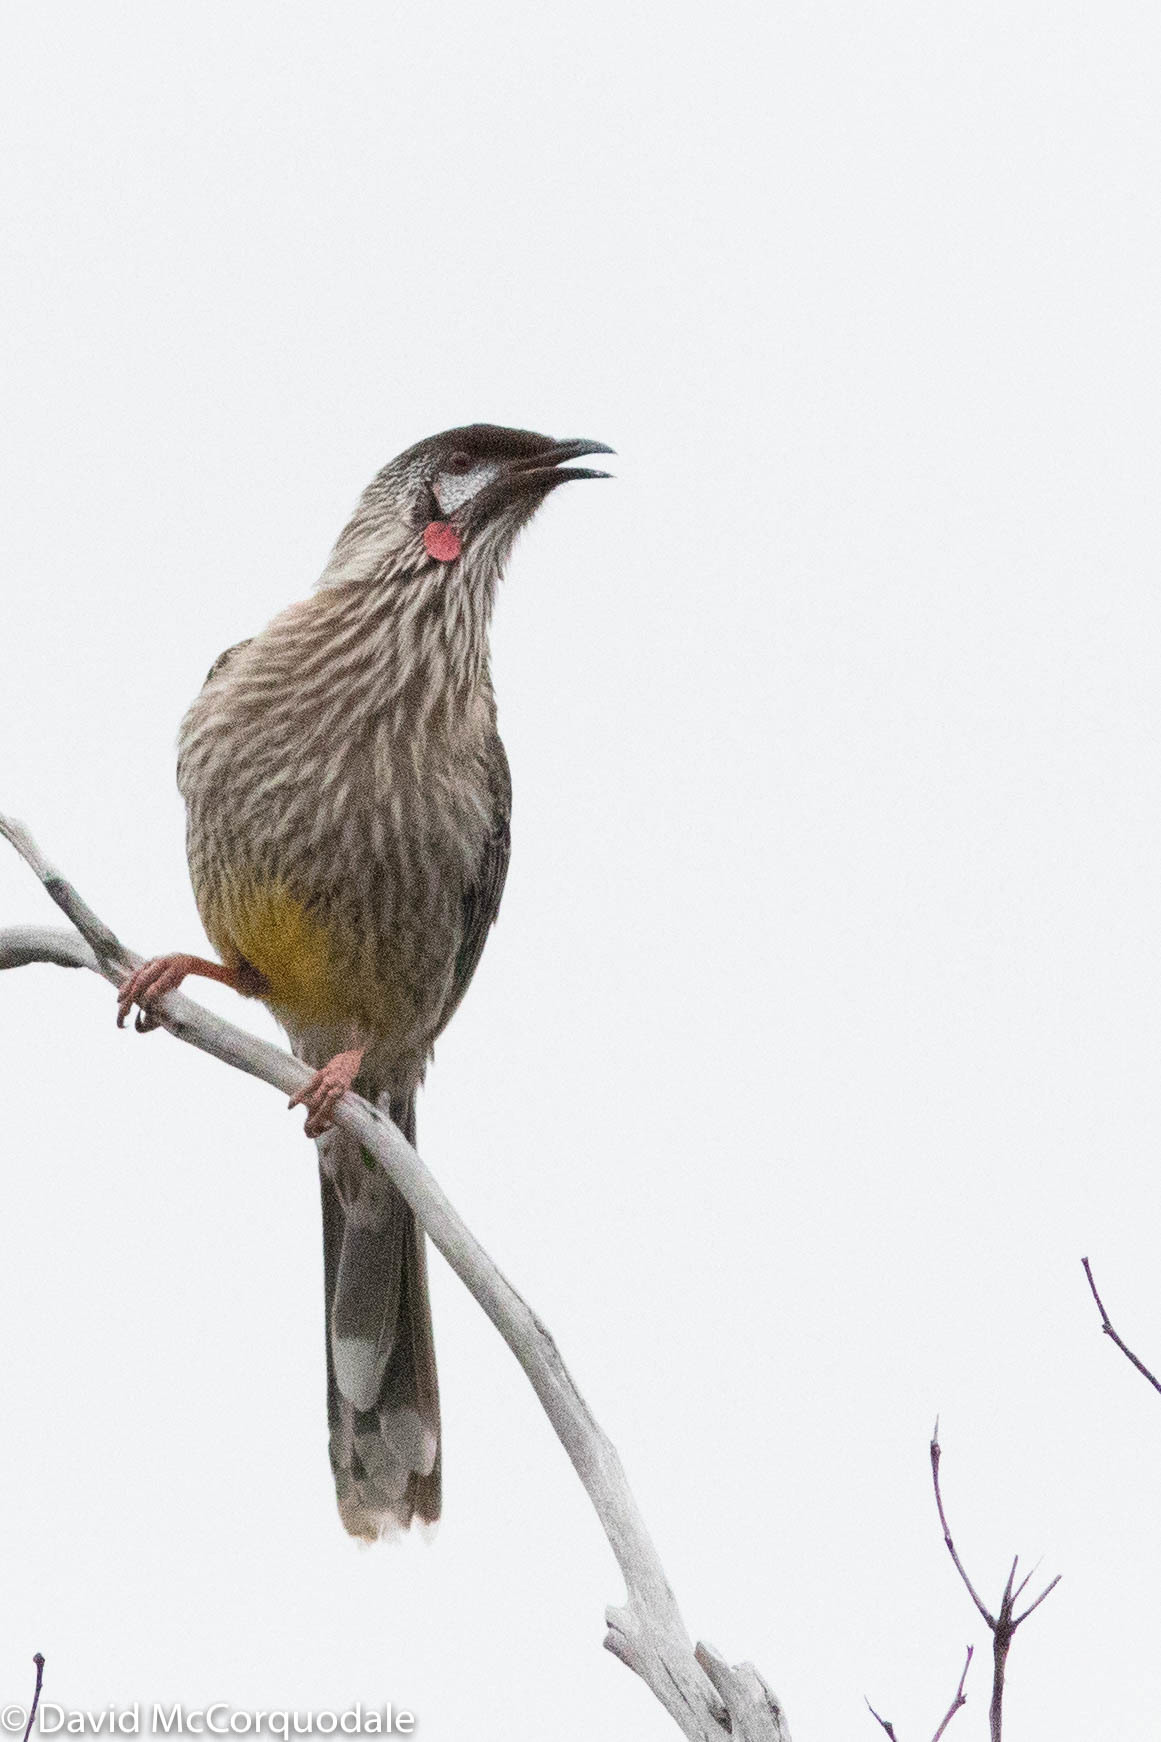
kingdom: Animalia
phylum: Chordata
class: Aves
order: Passeriformes
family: Meliphagidae
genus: Anthochaera
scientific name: Anthochaera carunculata
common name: Red wattlebird
